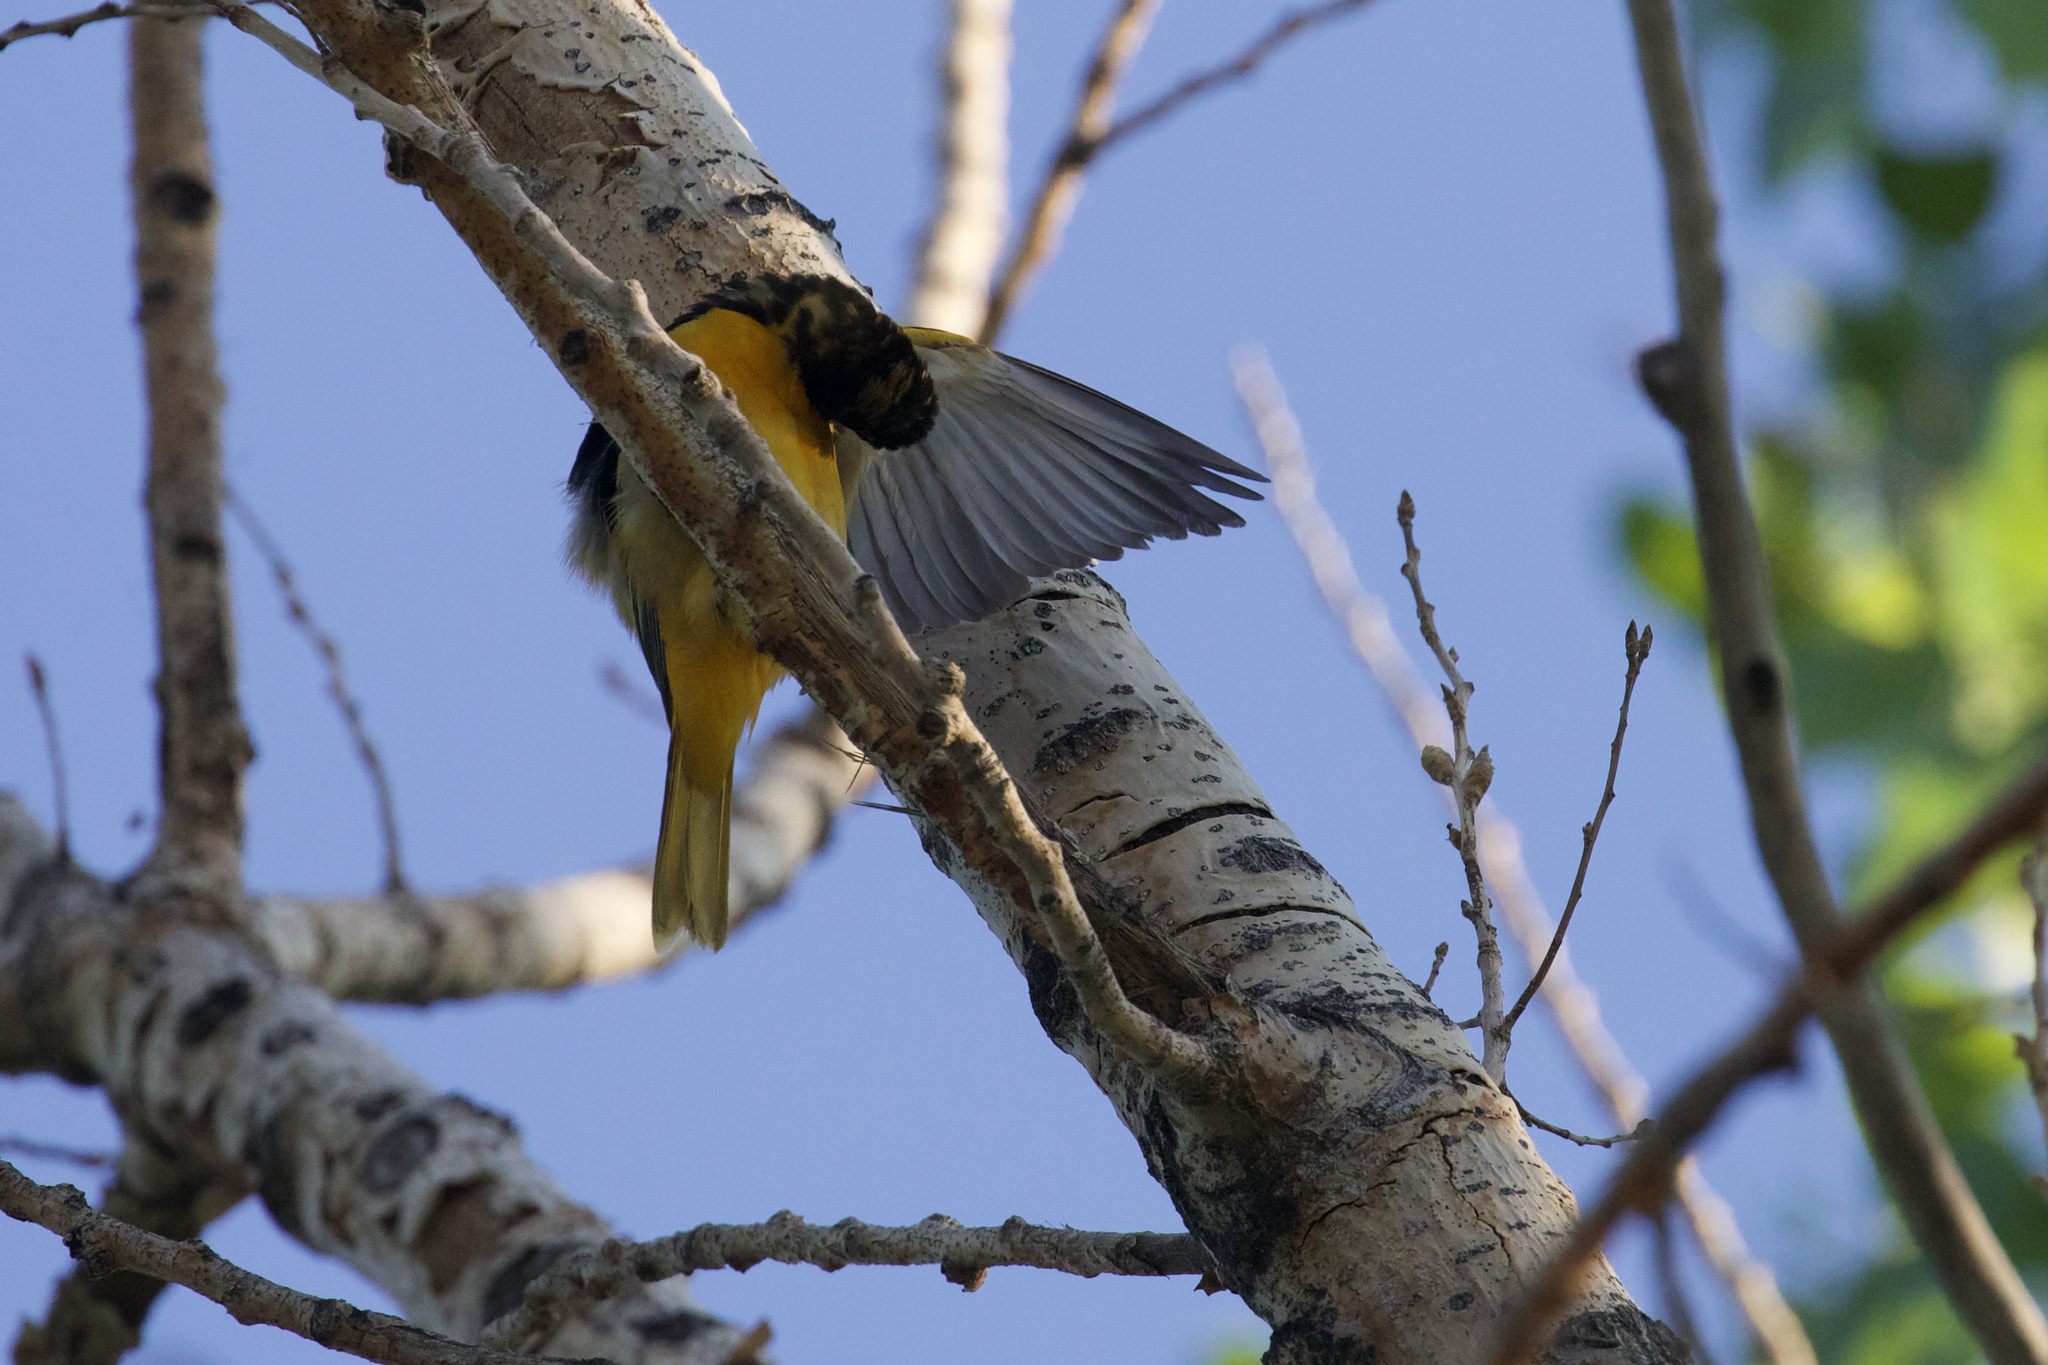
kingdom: Animalia
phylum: Chordata
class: Aves
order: Passeriformes
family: Icteridae
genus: Icterus
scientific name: Icterus galbula
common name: Baltimore oriole
